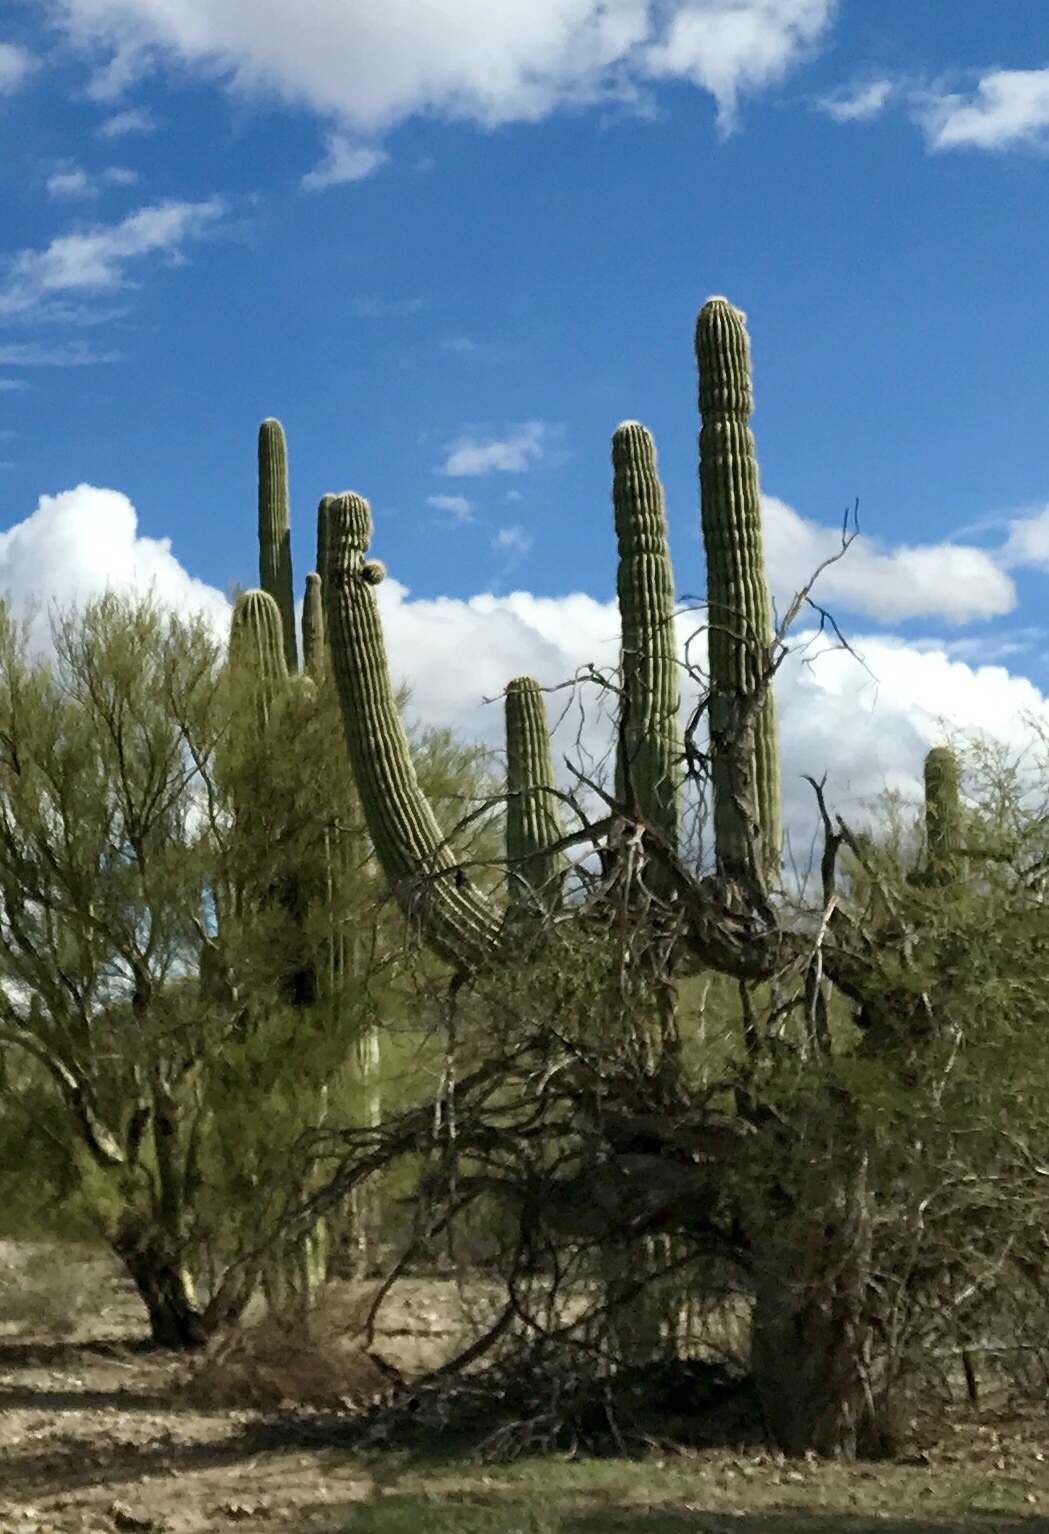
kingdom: Plantae
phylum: Tracheophyta
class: Magnoliopsida
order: Caryophyllales
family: Cactaceae
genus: Carnegiea
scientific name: Carnegiea gigantea
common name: Saguaro
